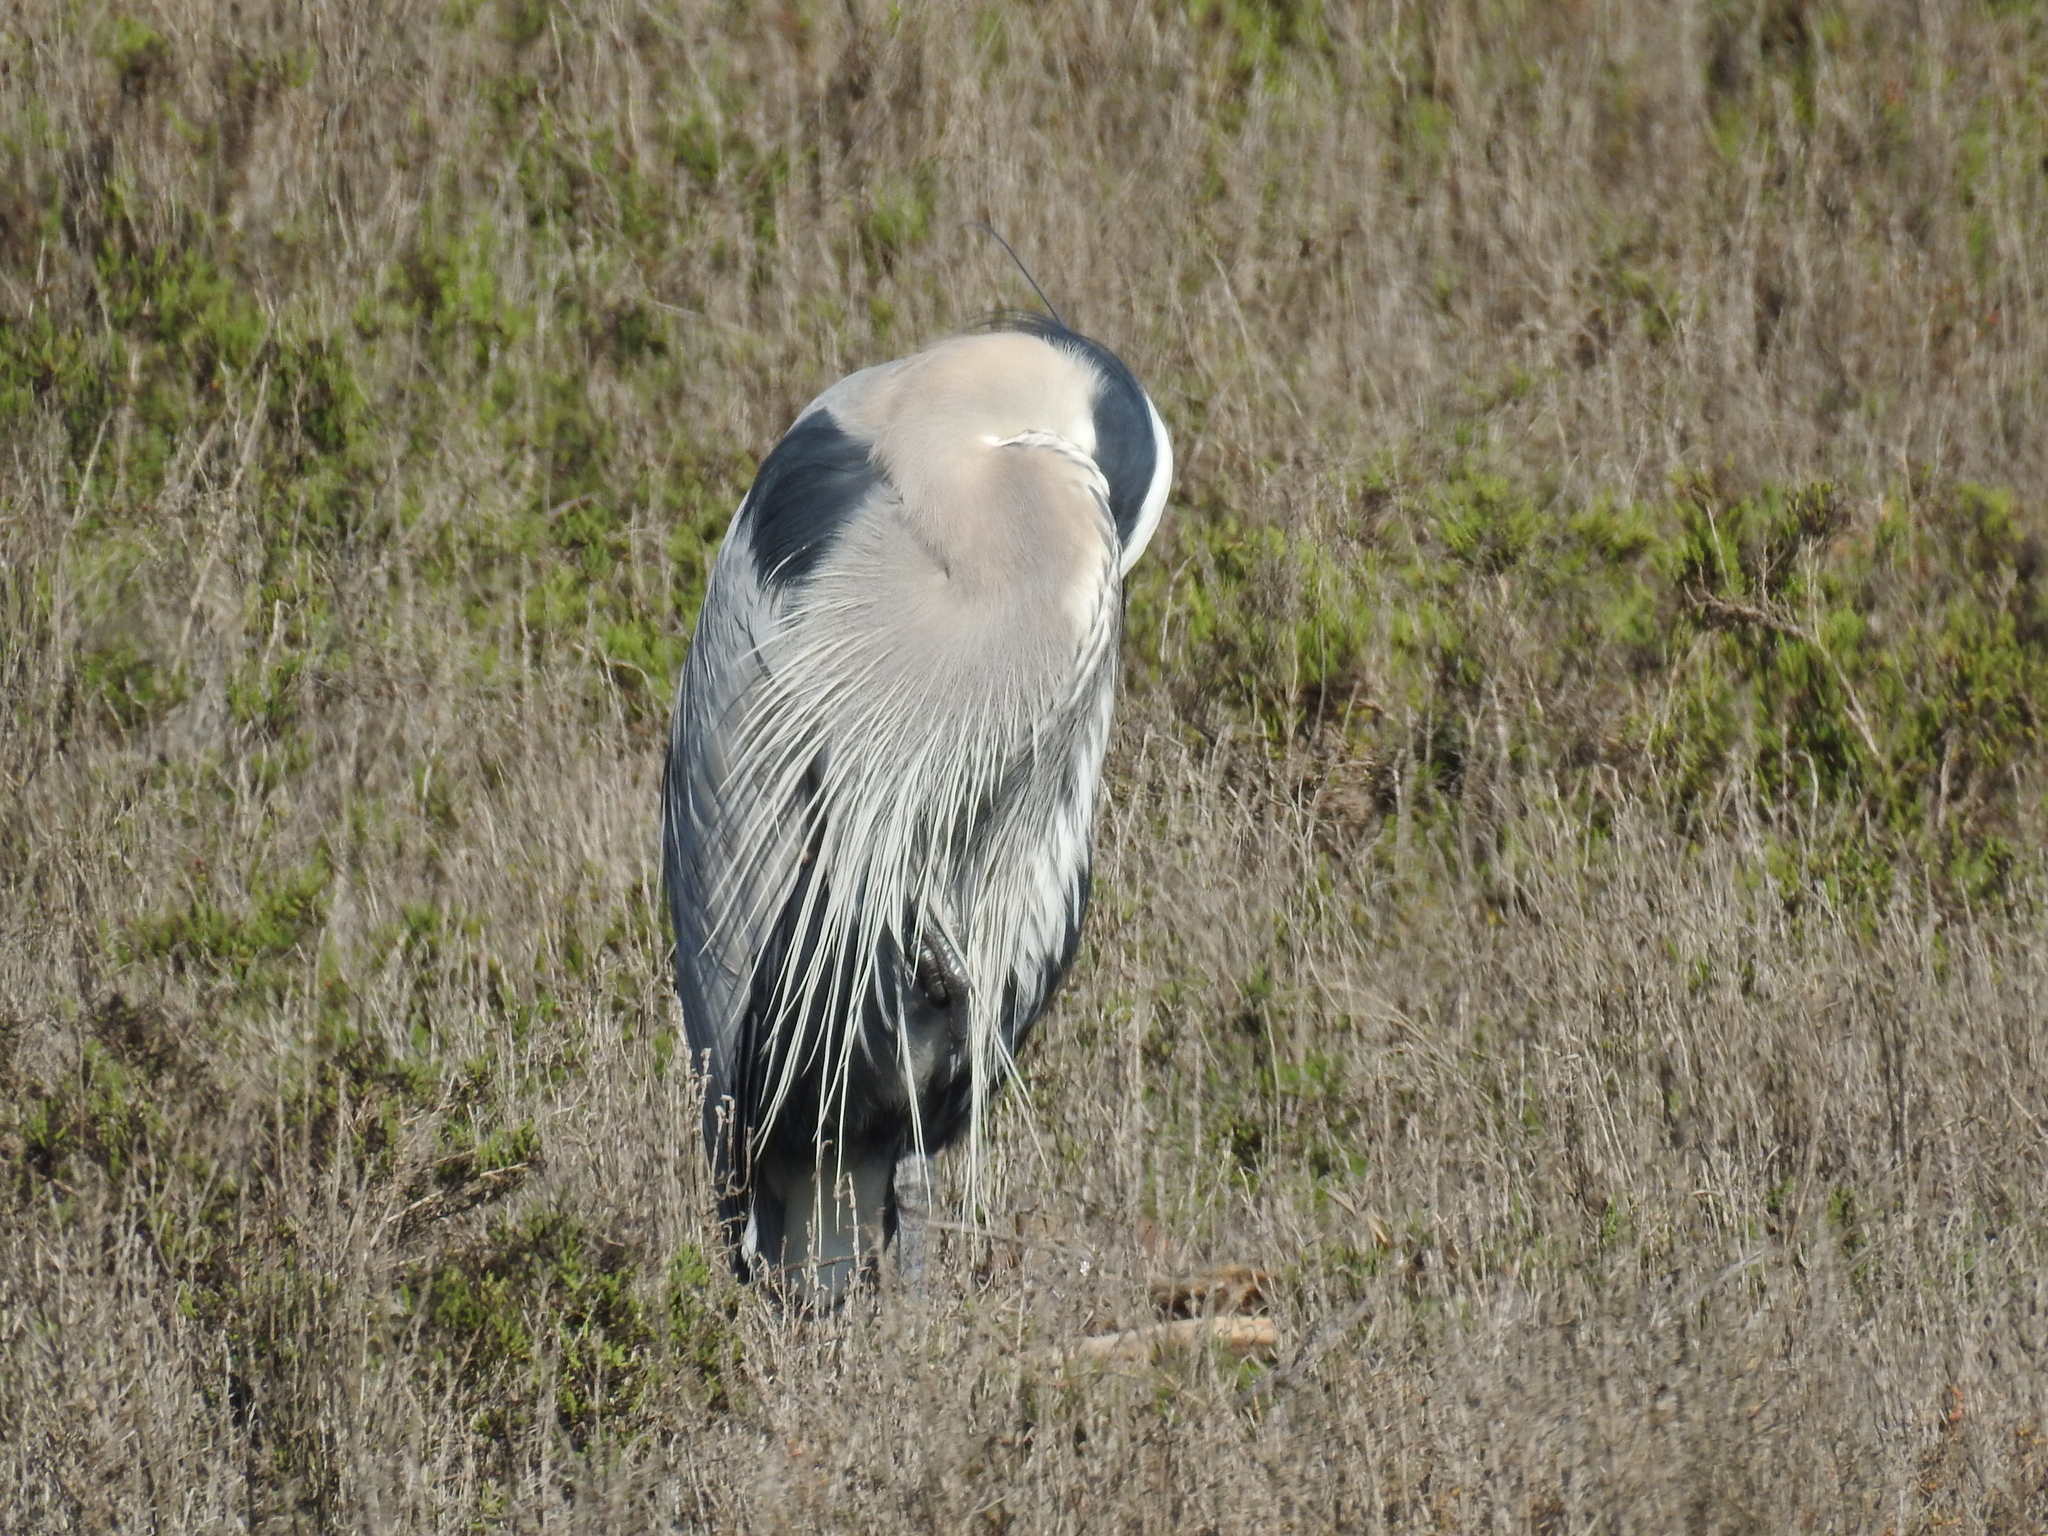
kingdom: Animalia
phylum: Chordata
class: Aves
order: Pelecaniformes
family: Ardeidae
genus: Ardea
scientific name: Ardea herodias
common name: Great blue heron
